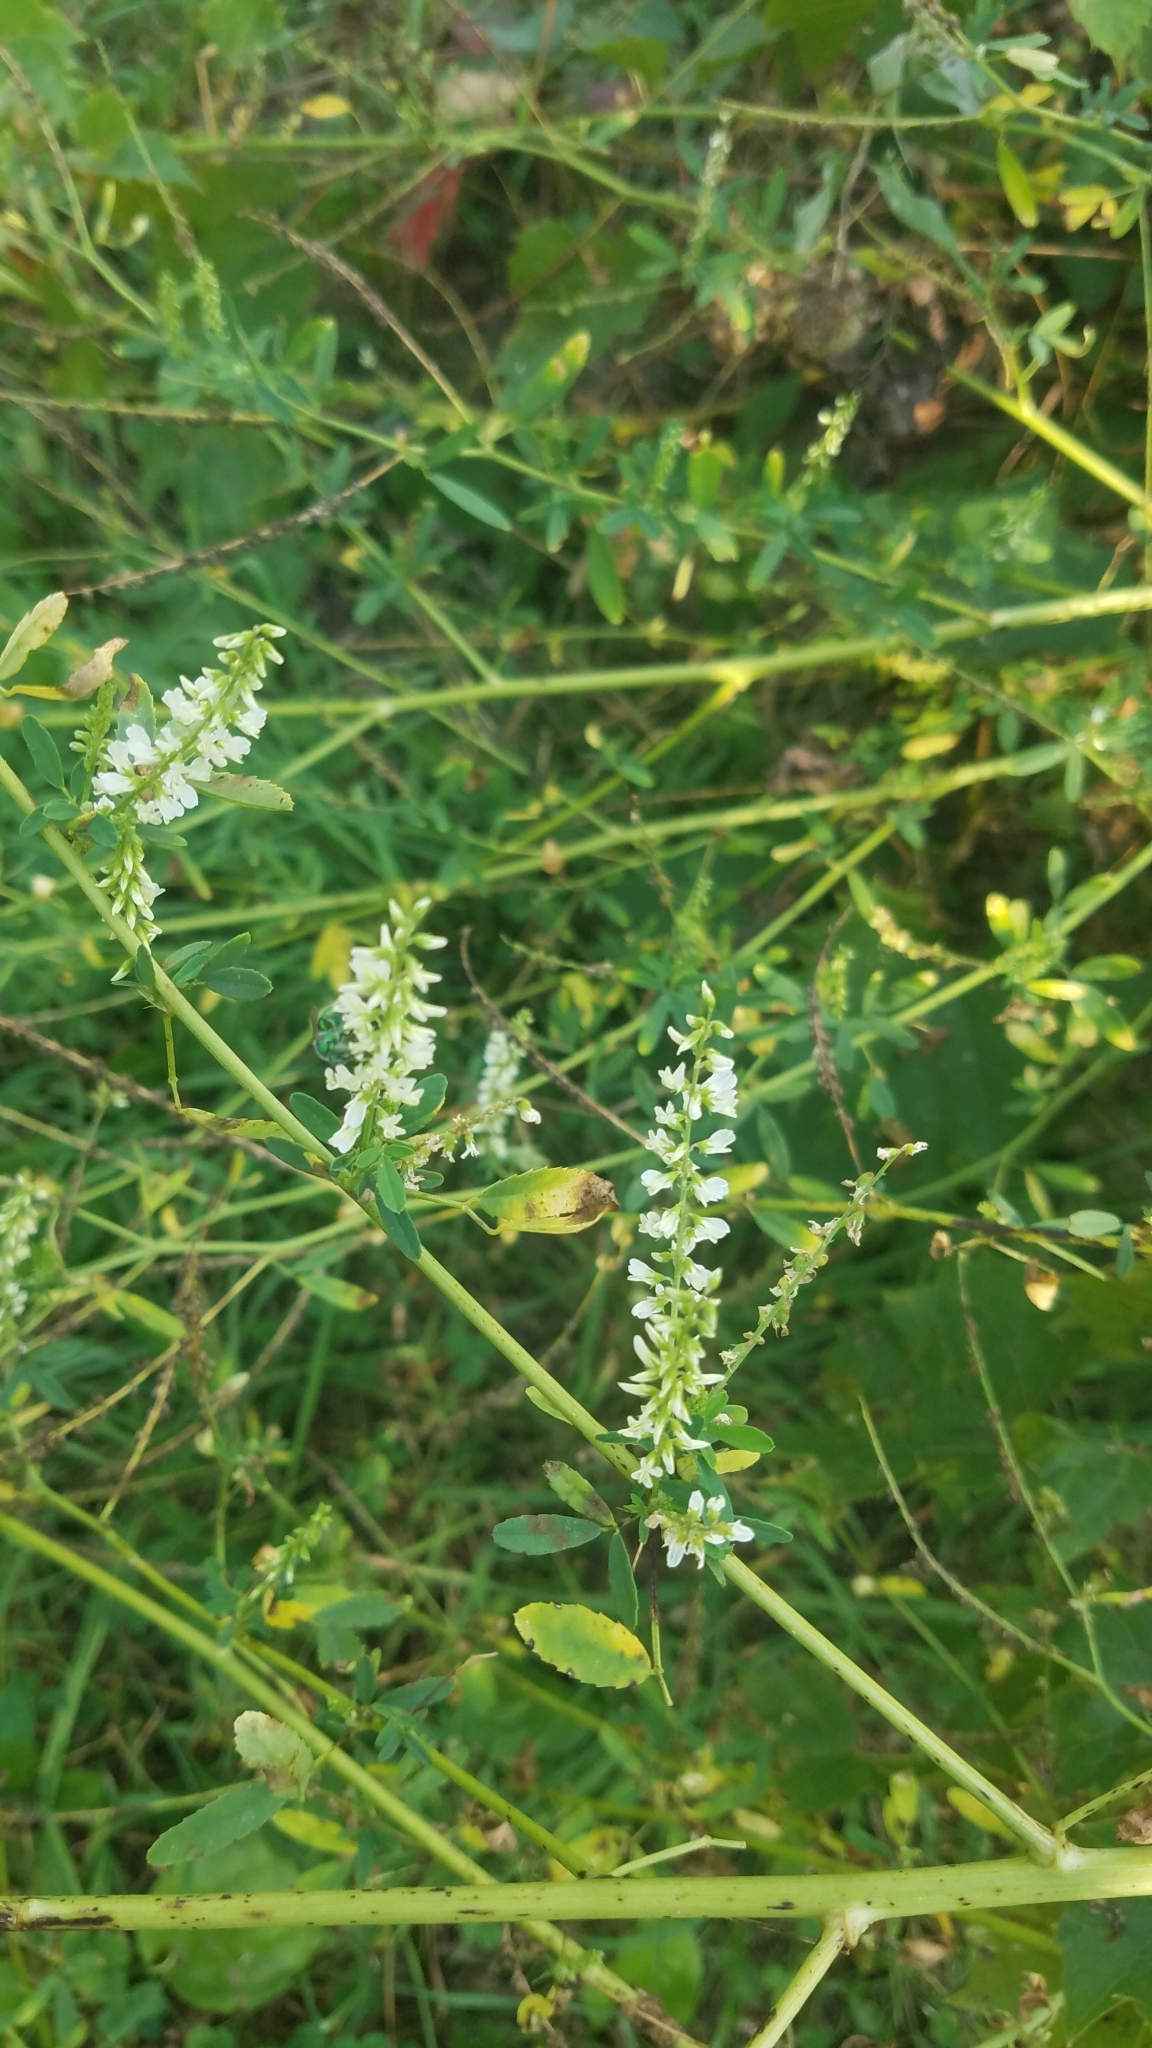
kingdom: Plantae
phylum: Tracheophyta
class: Magnoliopsida
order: Fabales
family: Fabaceae
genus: Melilotus
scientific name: Melilotus albus
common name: White melilot
